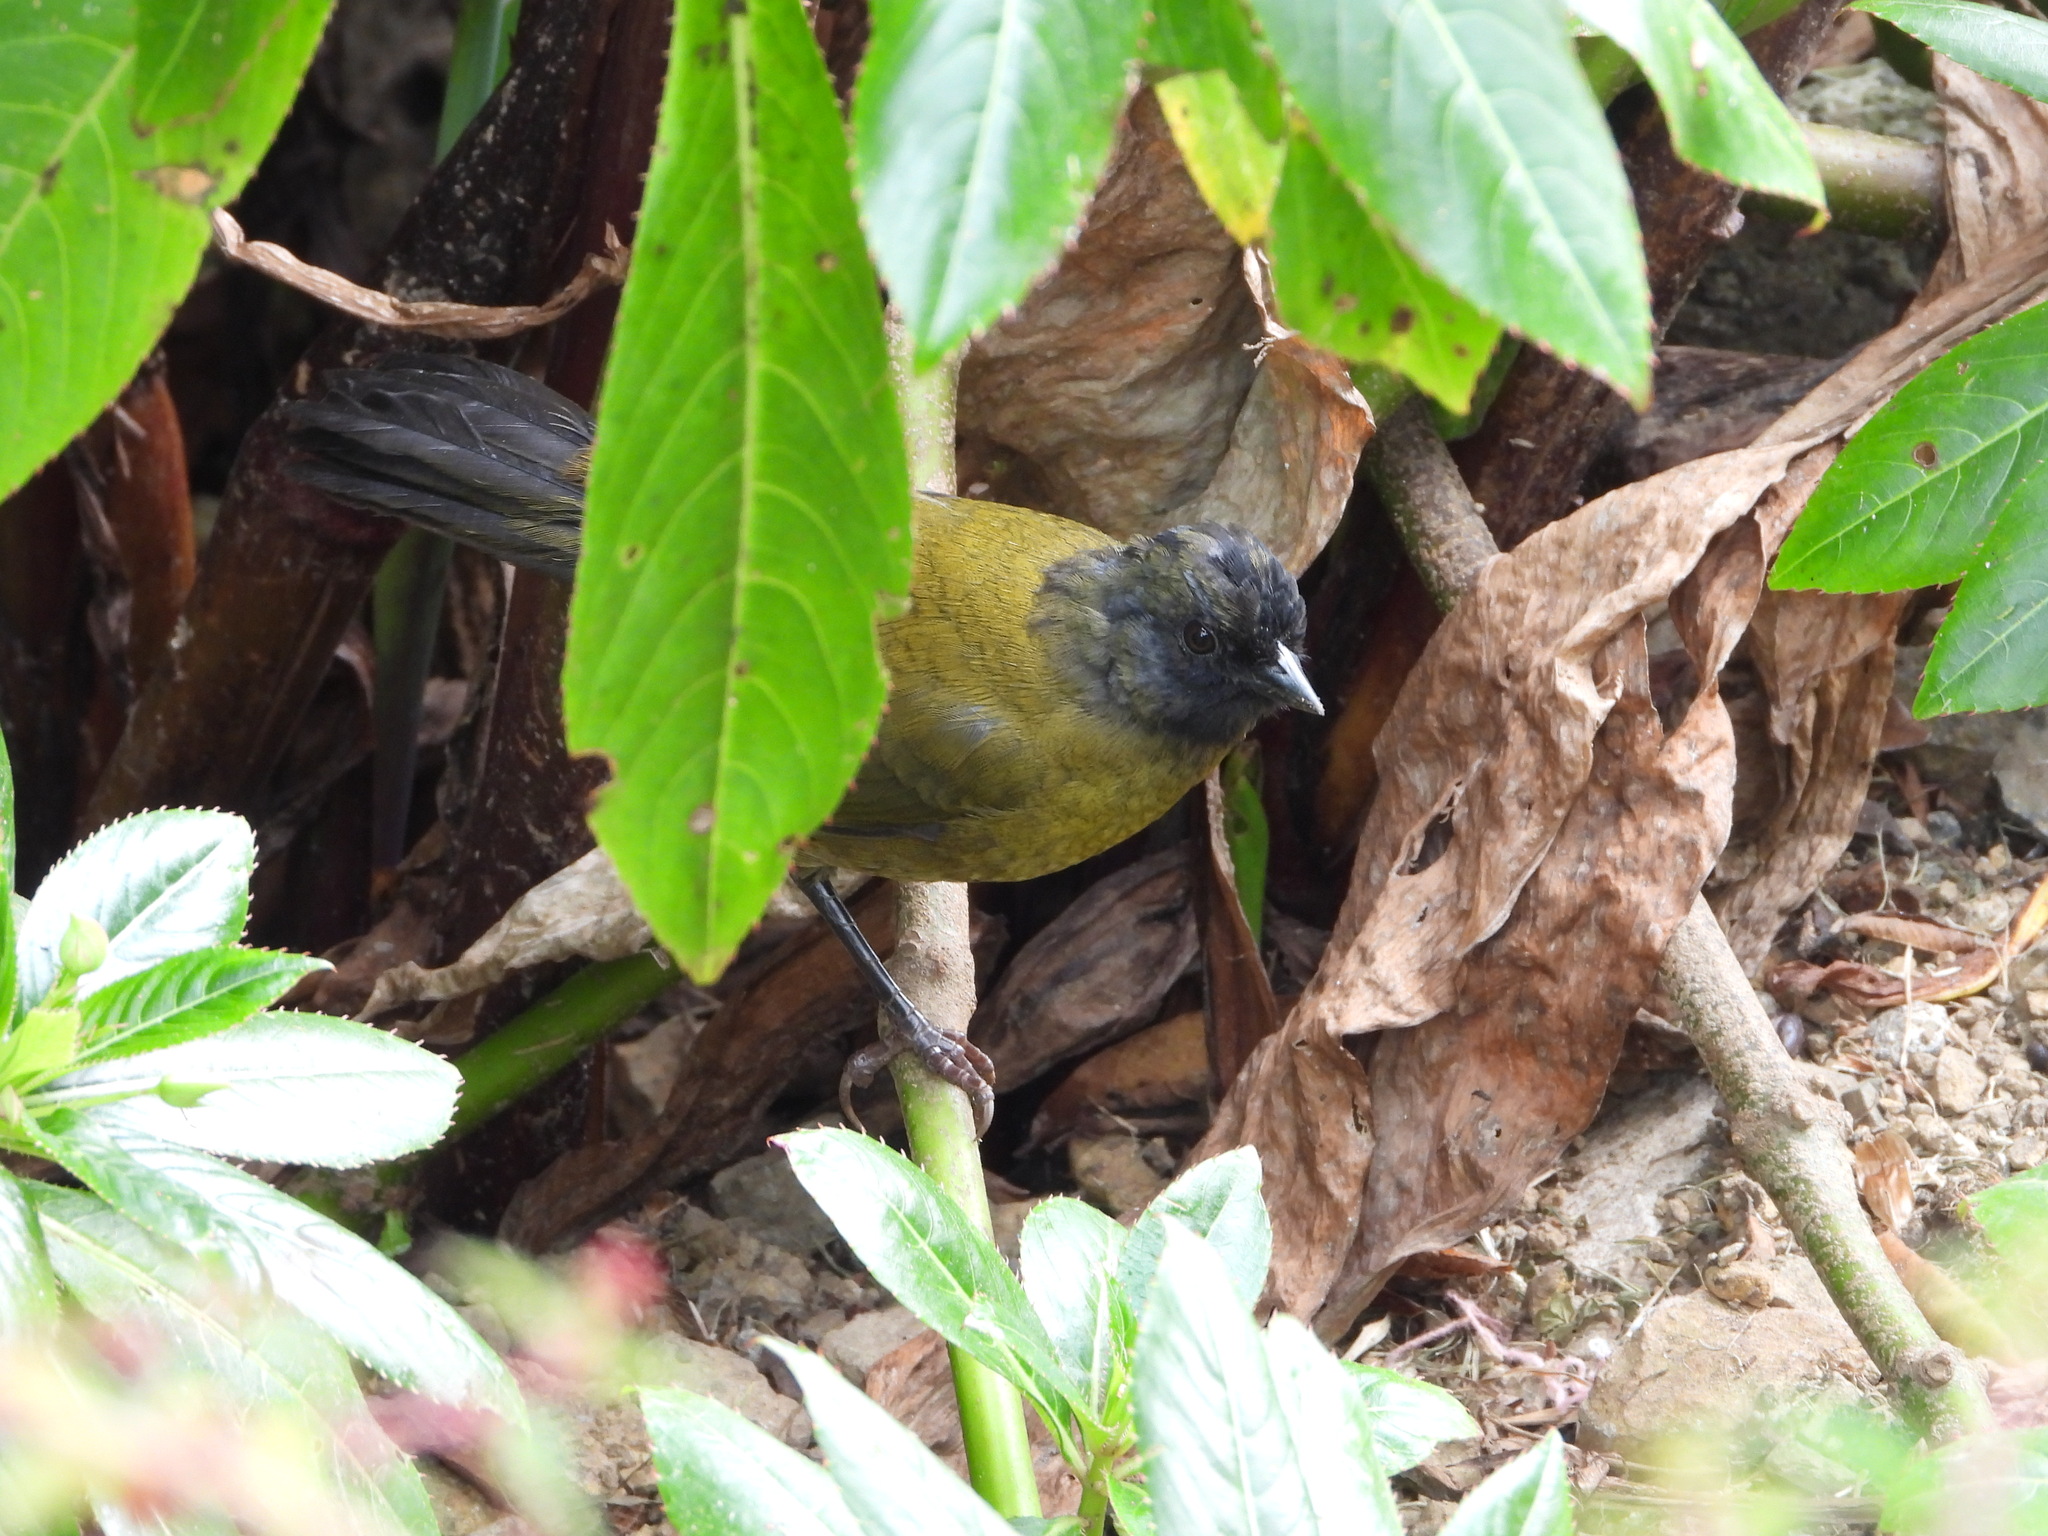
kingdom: Animalia
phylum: Chordata
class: Aves
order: Passeriformes
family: Passerellidae
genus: Pezopetes
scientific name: Pezopetes capitalis
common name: Large-footed finch
